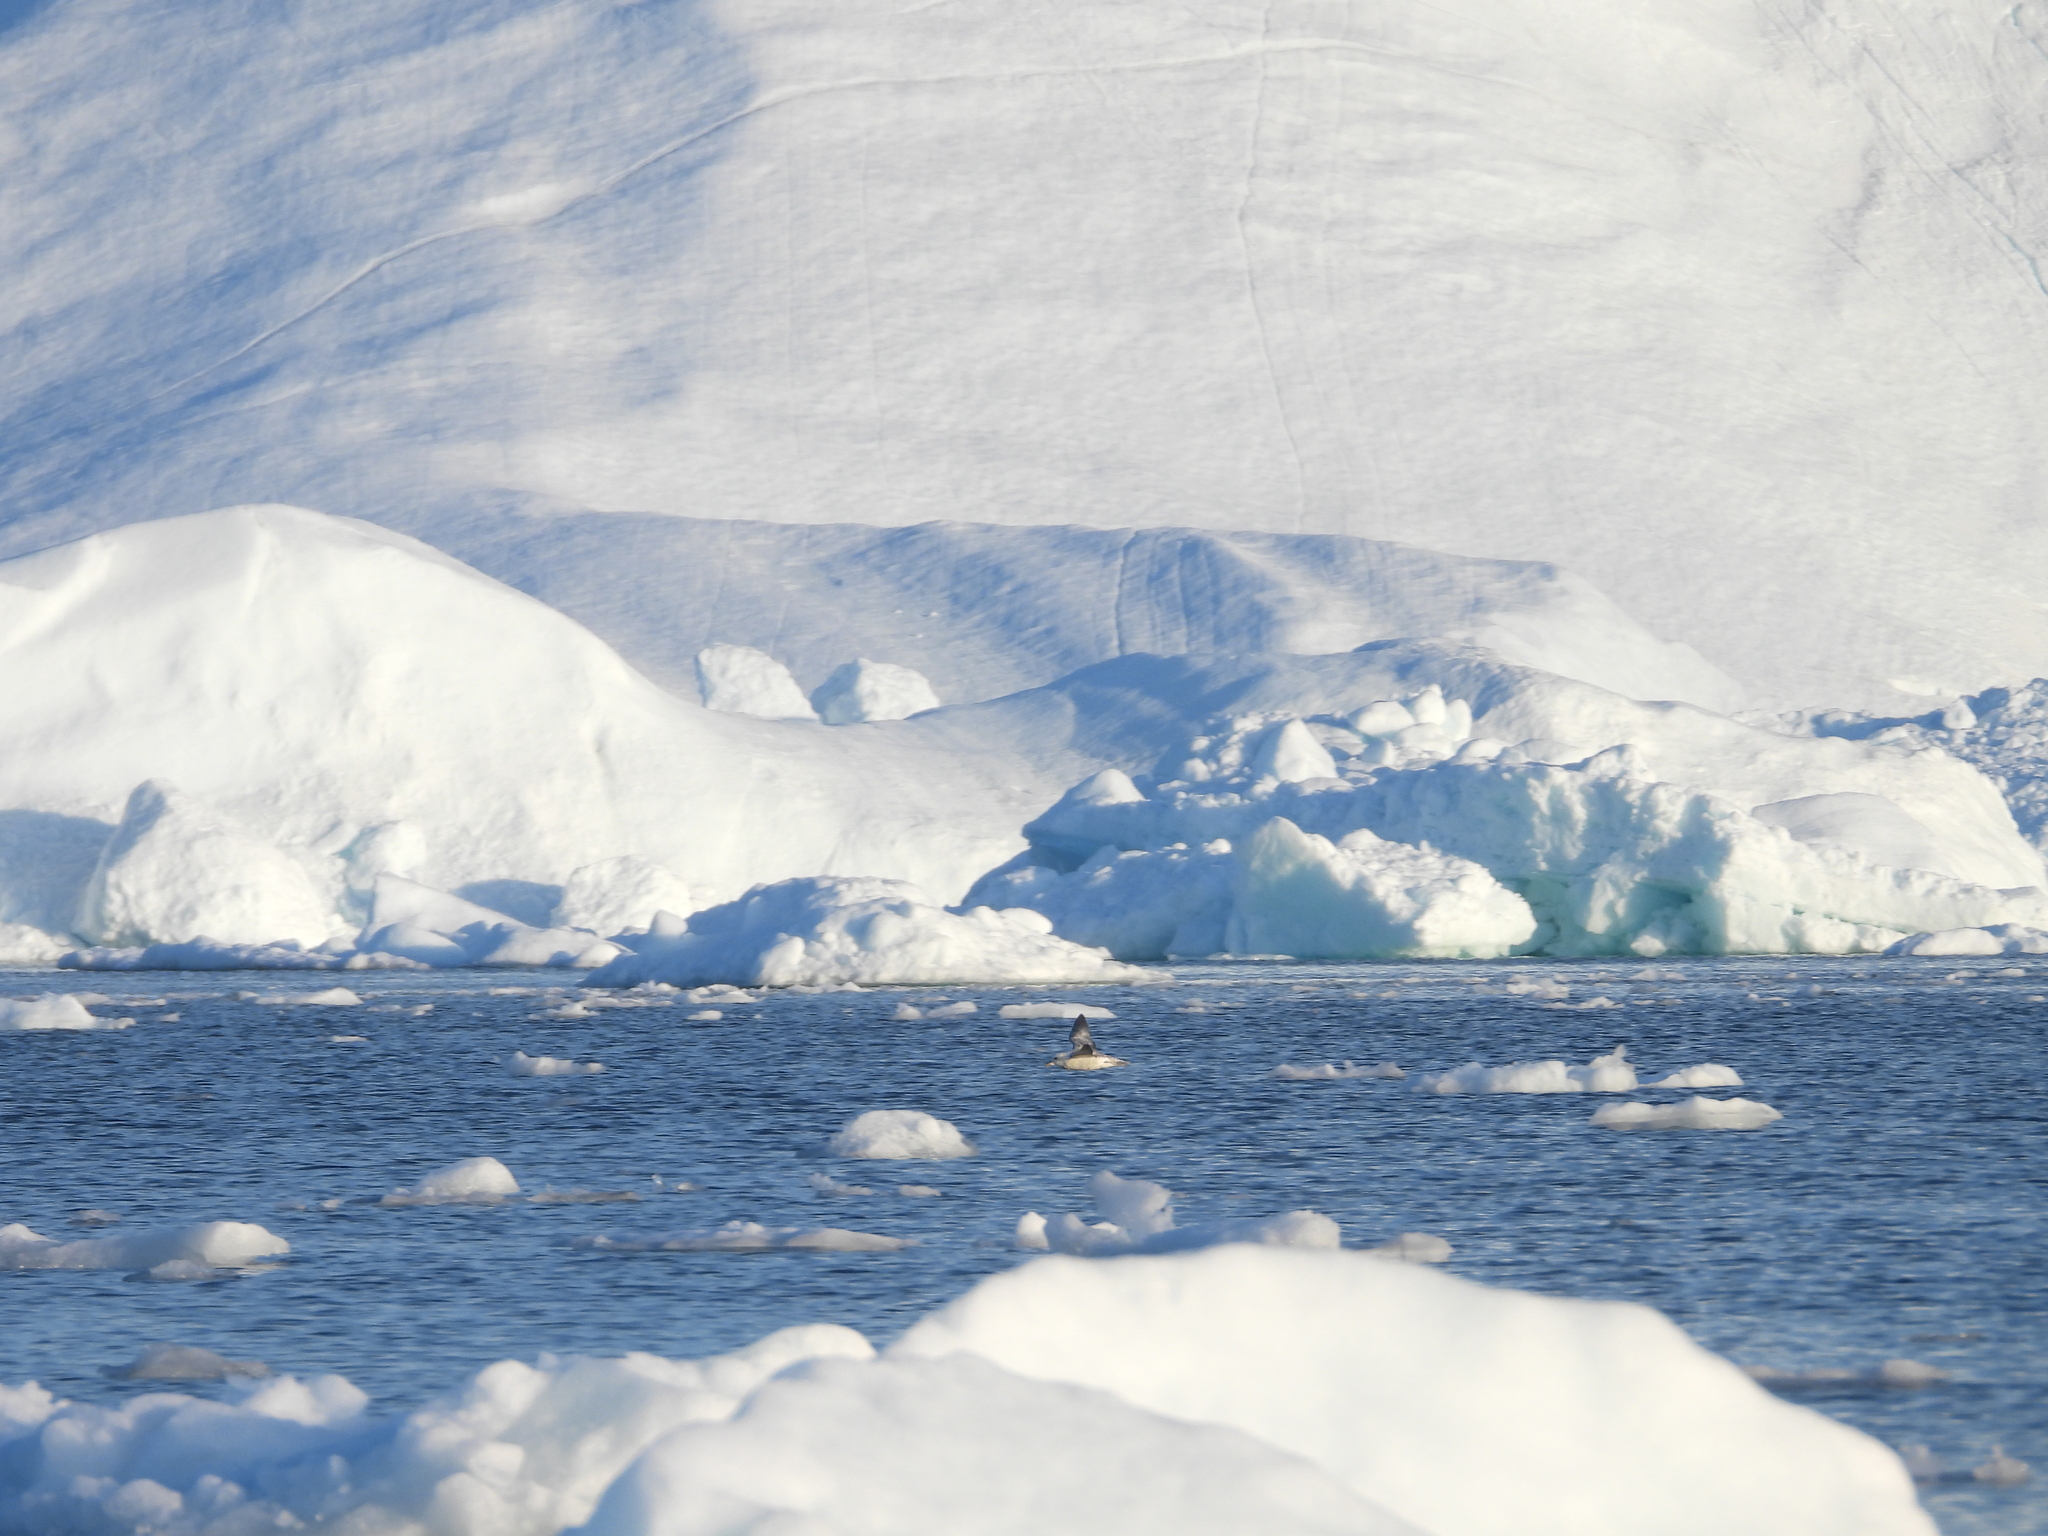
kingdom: Animalia
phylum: Chordata
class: Aves
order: Procellariiformes
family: Procellariidae
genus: Fulmarus
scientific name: Fulmarus glacialis
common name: Northern fulmar
